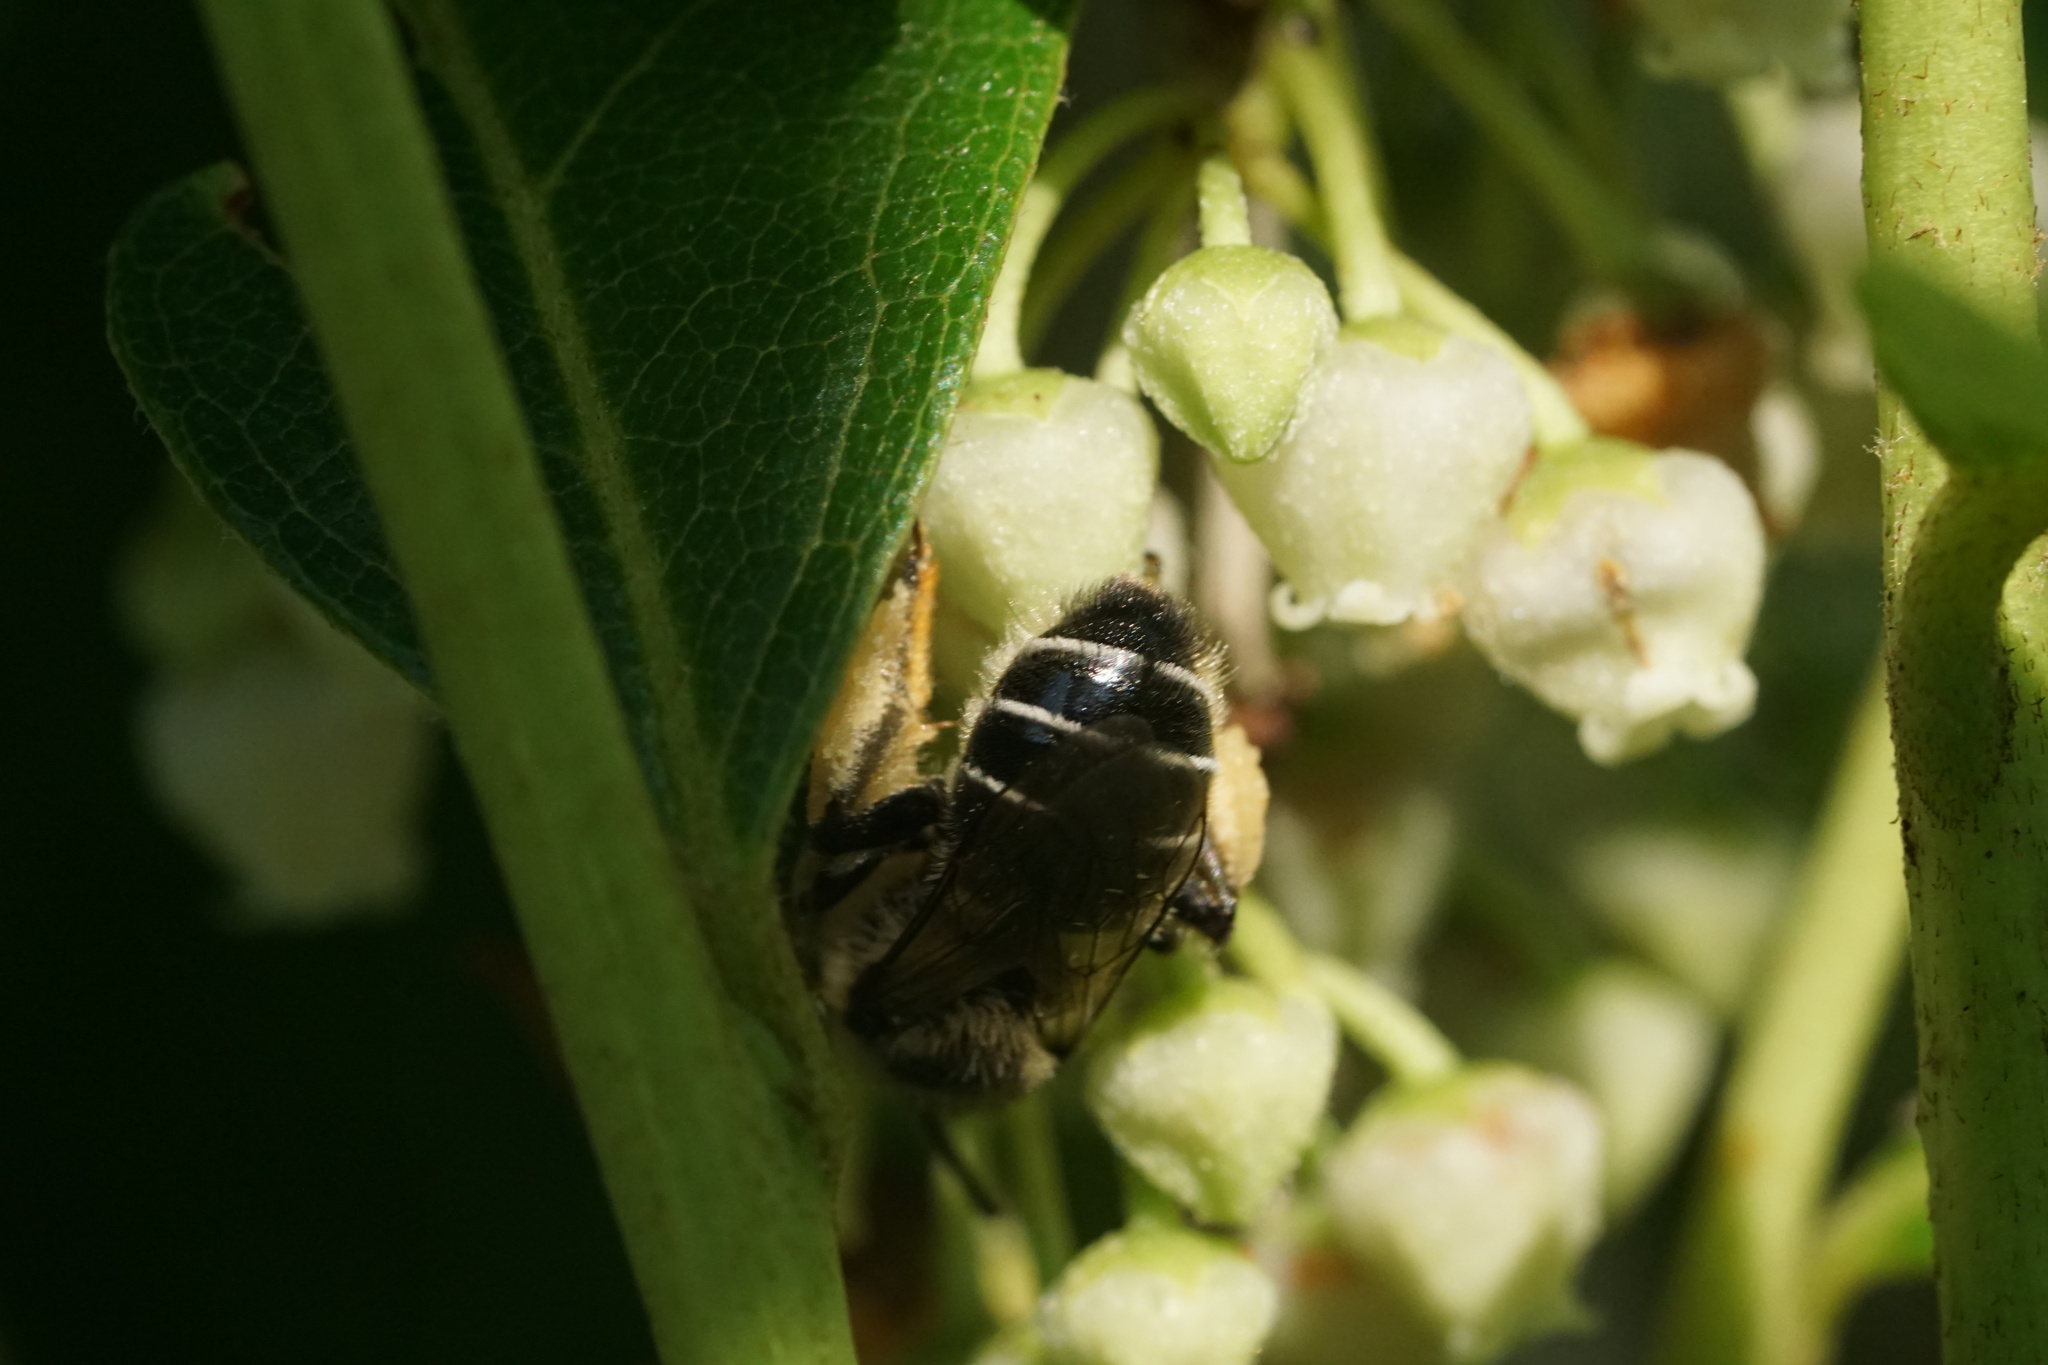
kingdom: Animalia
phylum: Arthropoda
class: Insecta
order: Hymenoptera
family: Melittidae
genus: Melitta
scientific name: Melitta melittoides
